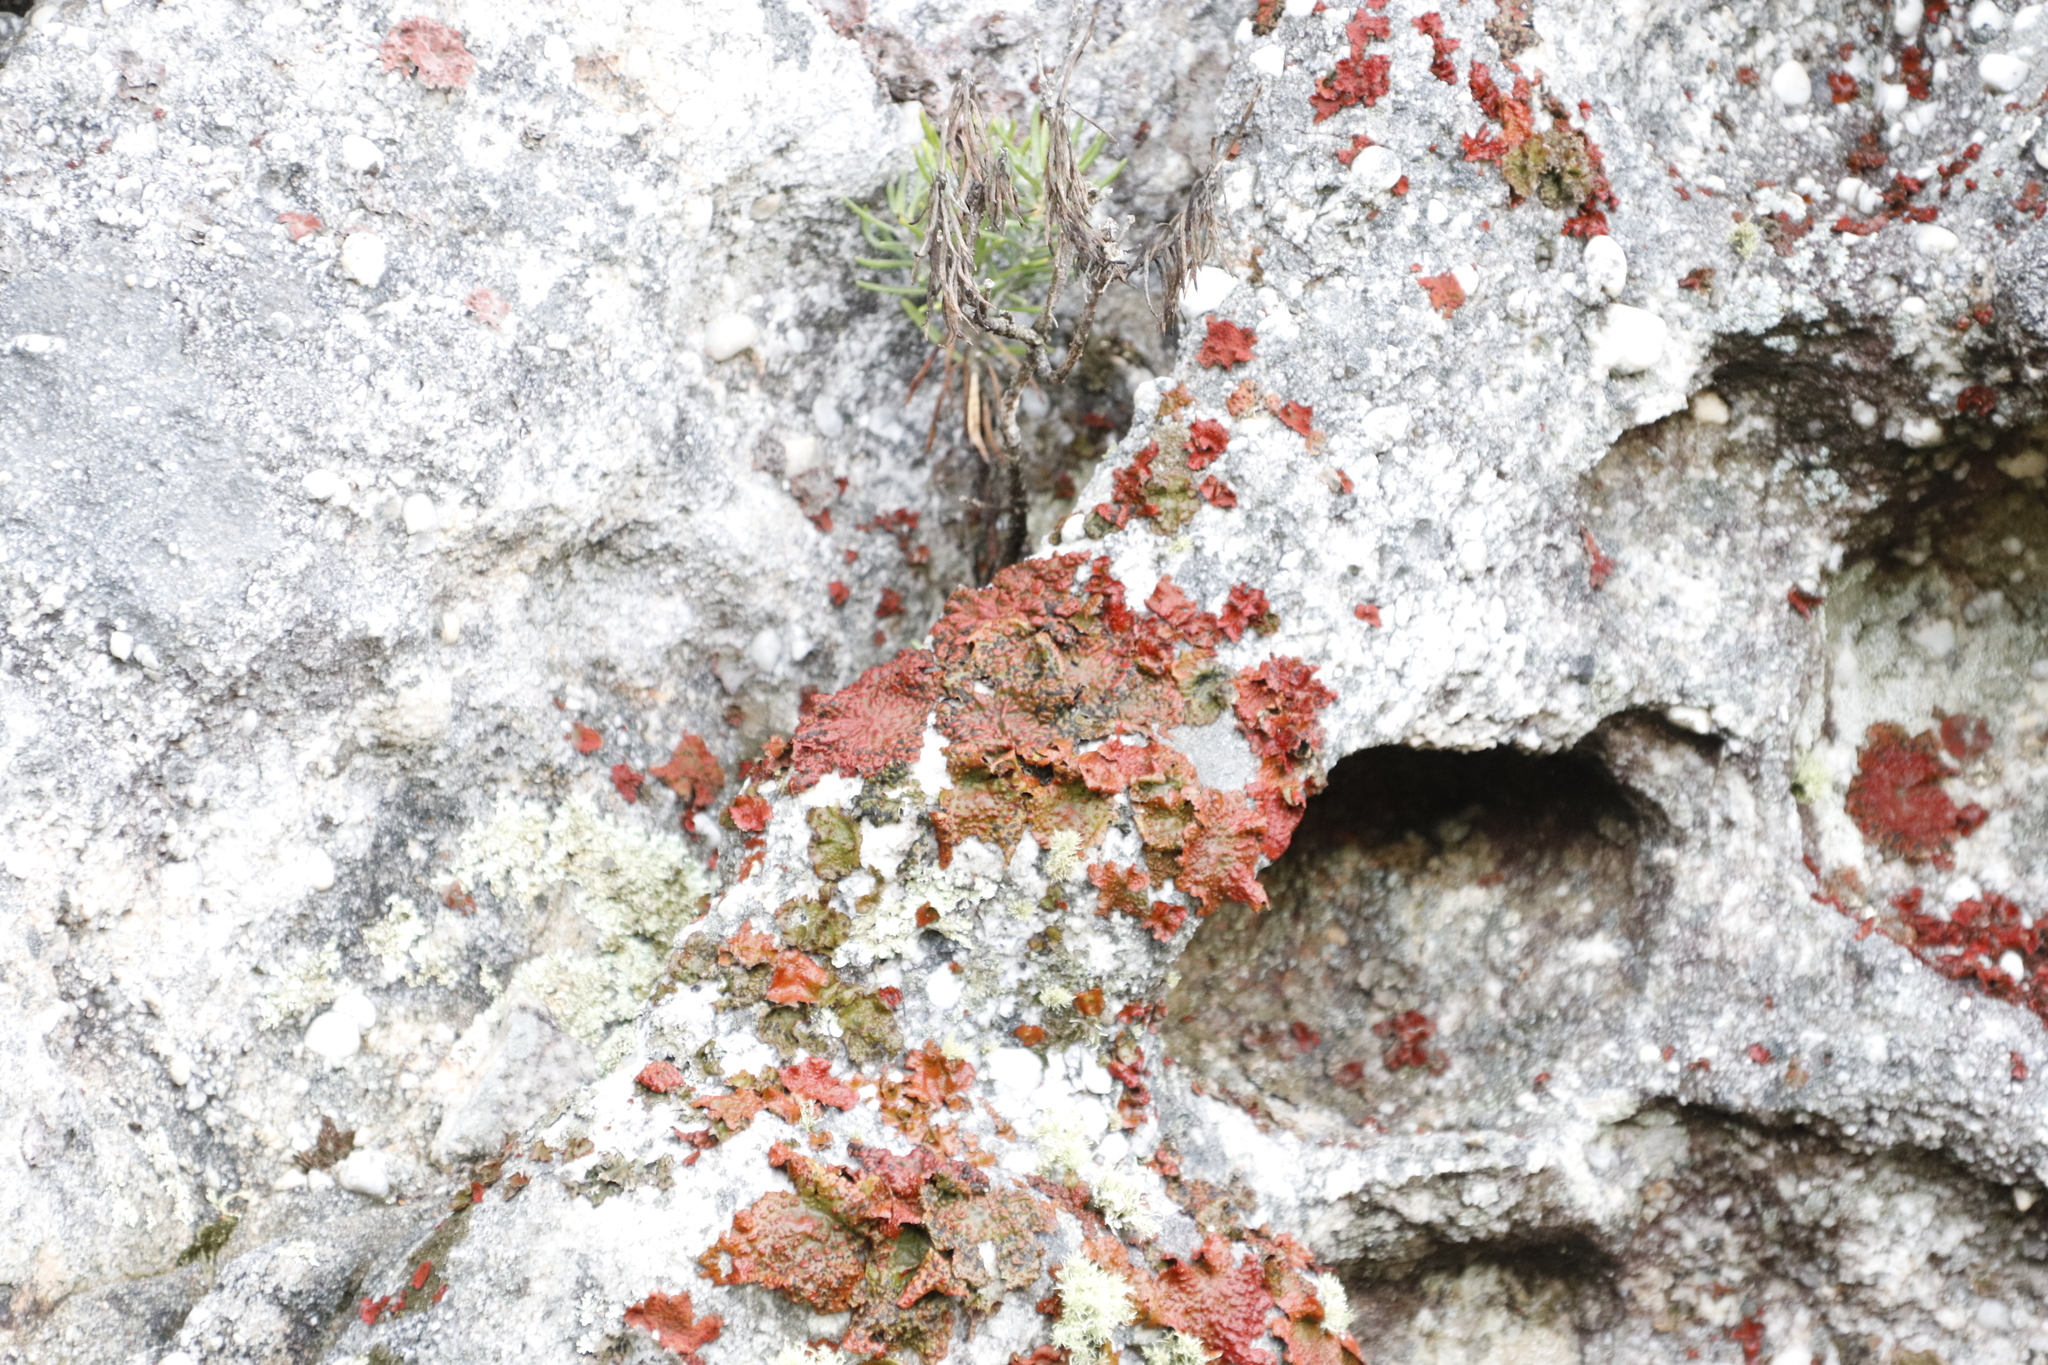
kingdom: Fungi
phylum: Ascomycota
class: Lecanoromycetes
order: Umbilicariales
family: Umbilicariaceae
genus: Lasallia
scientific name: Lasallia rubiginosa
